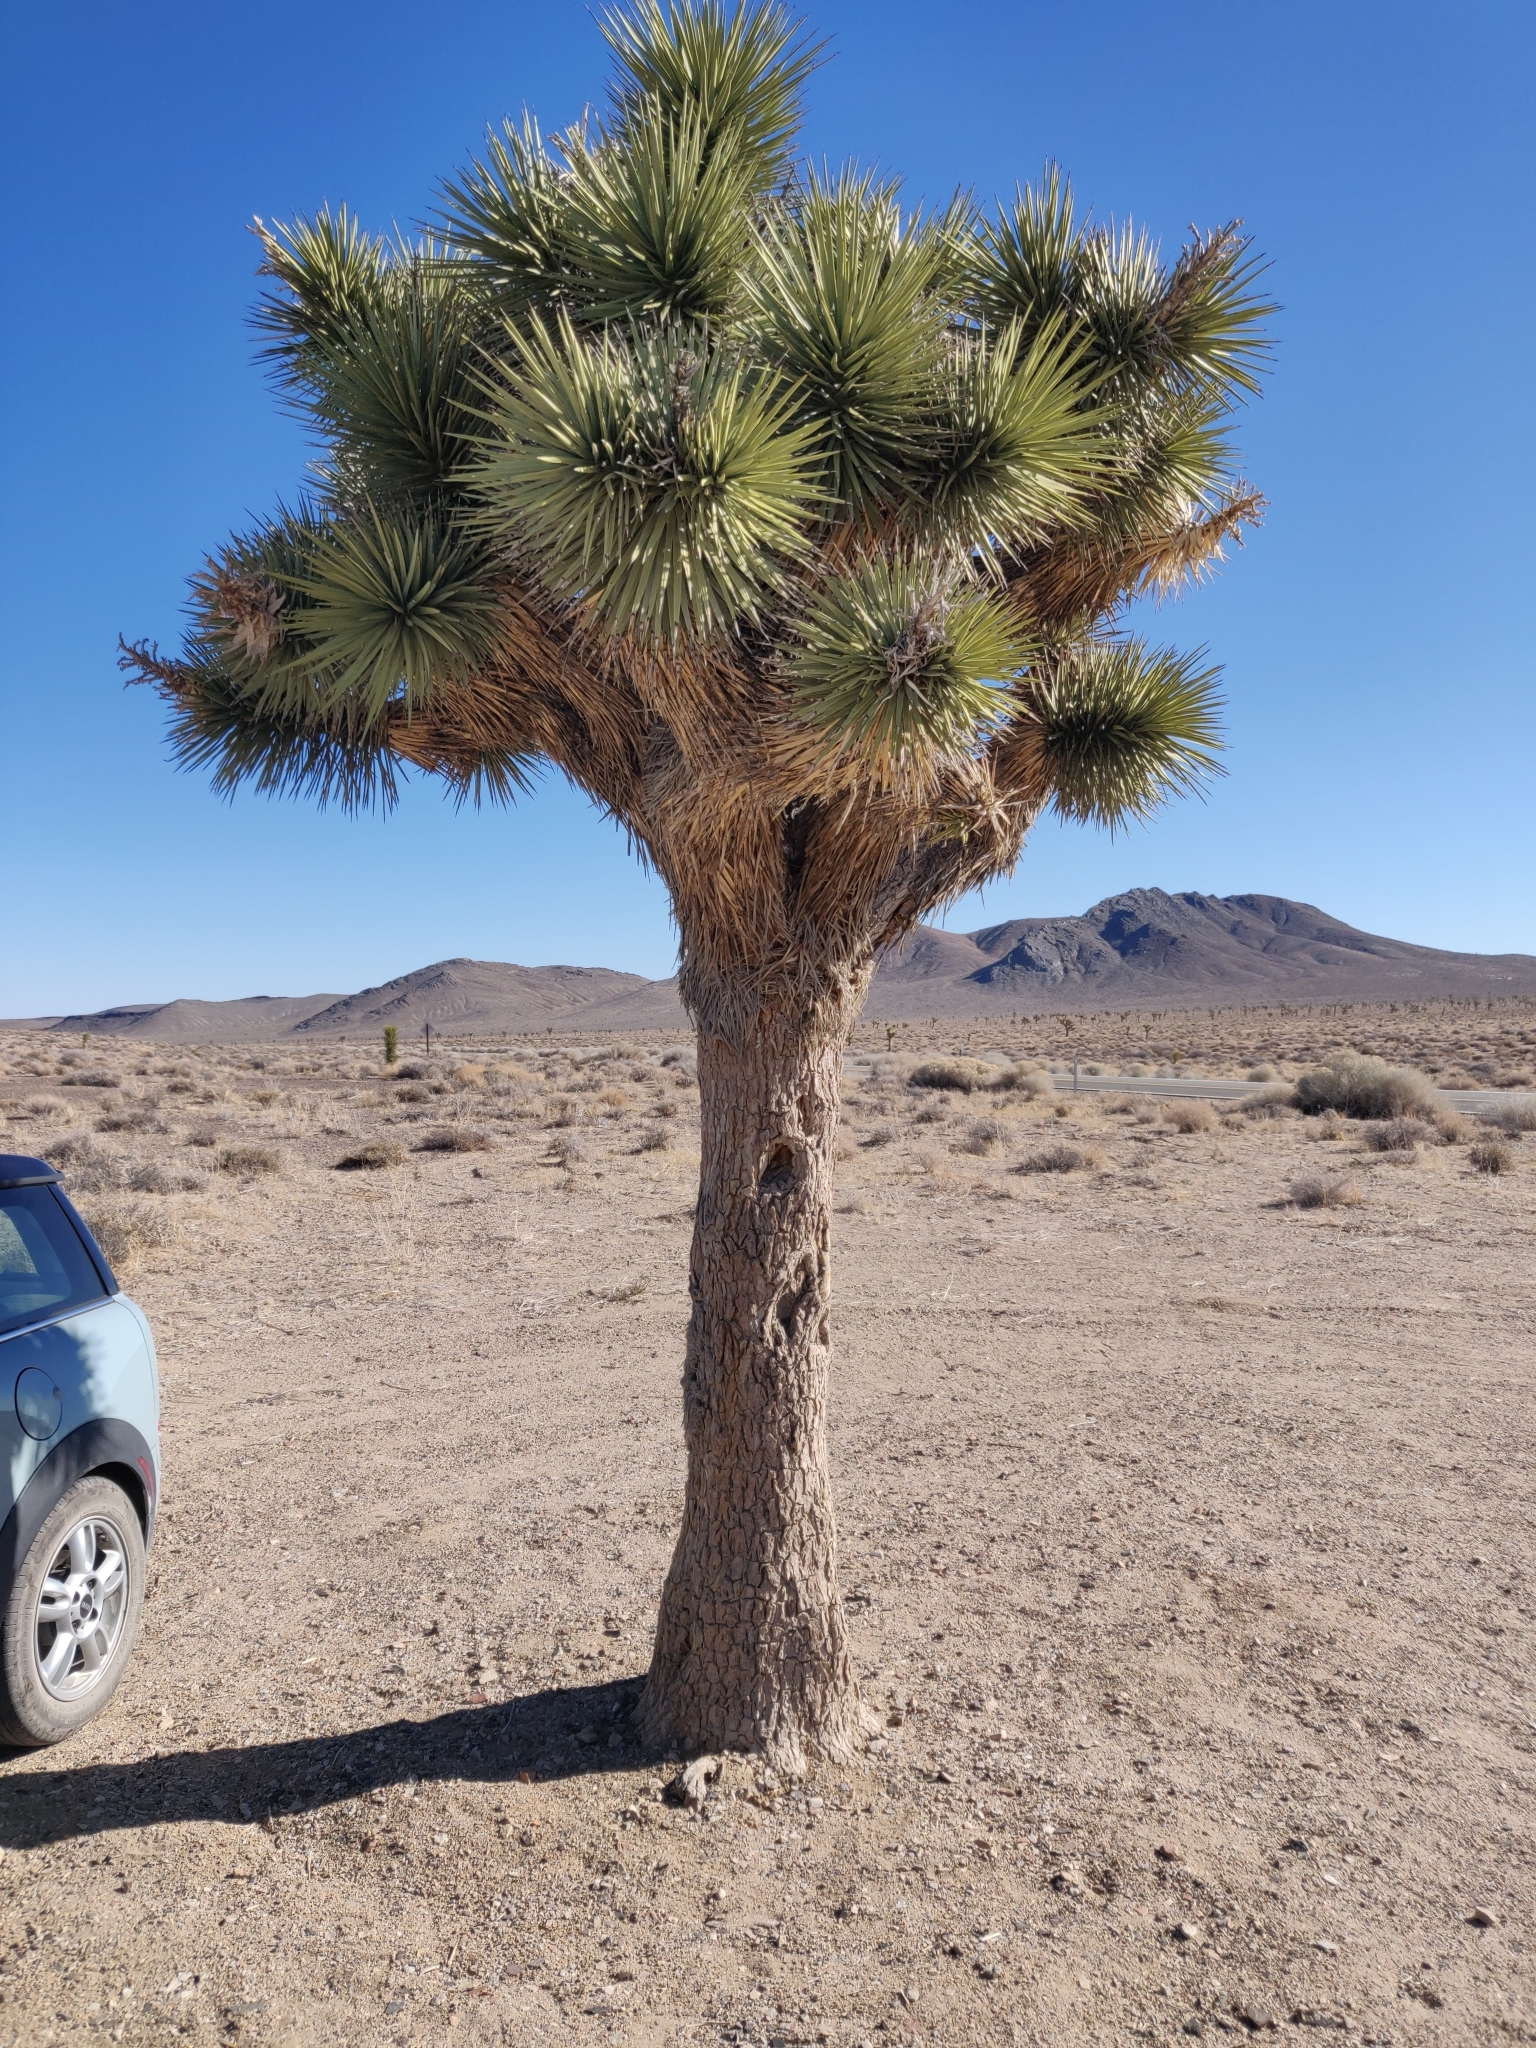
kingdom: Plantae
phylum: Tracheophyta
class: Liliopsida
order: Asparagales
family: Asparagaceae
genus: Yucca
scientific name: Yucca brevifolia
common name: Joshua tree
